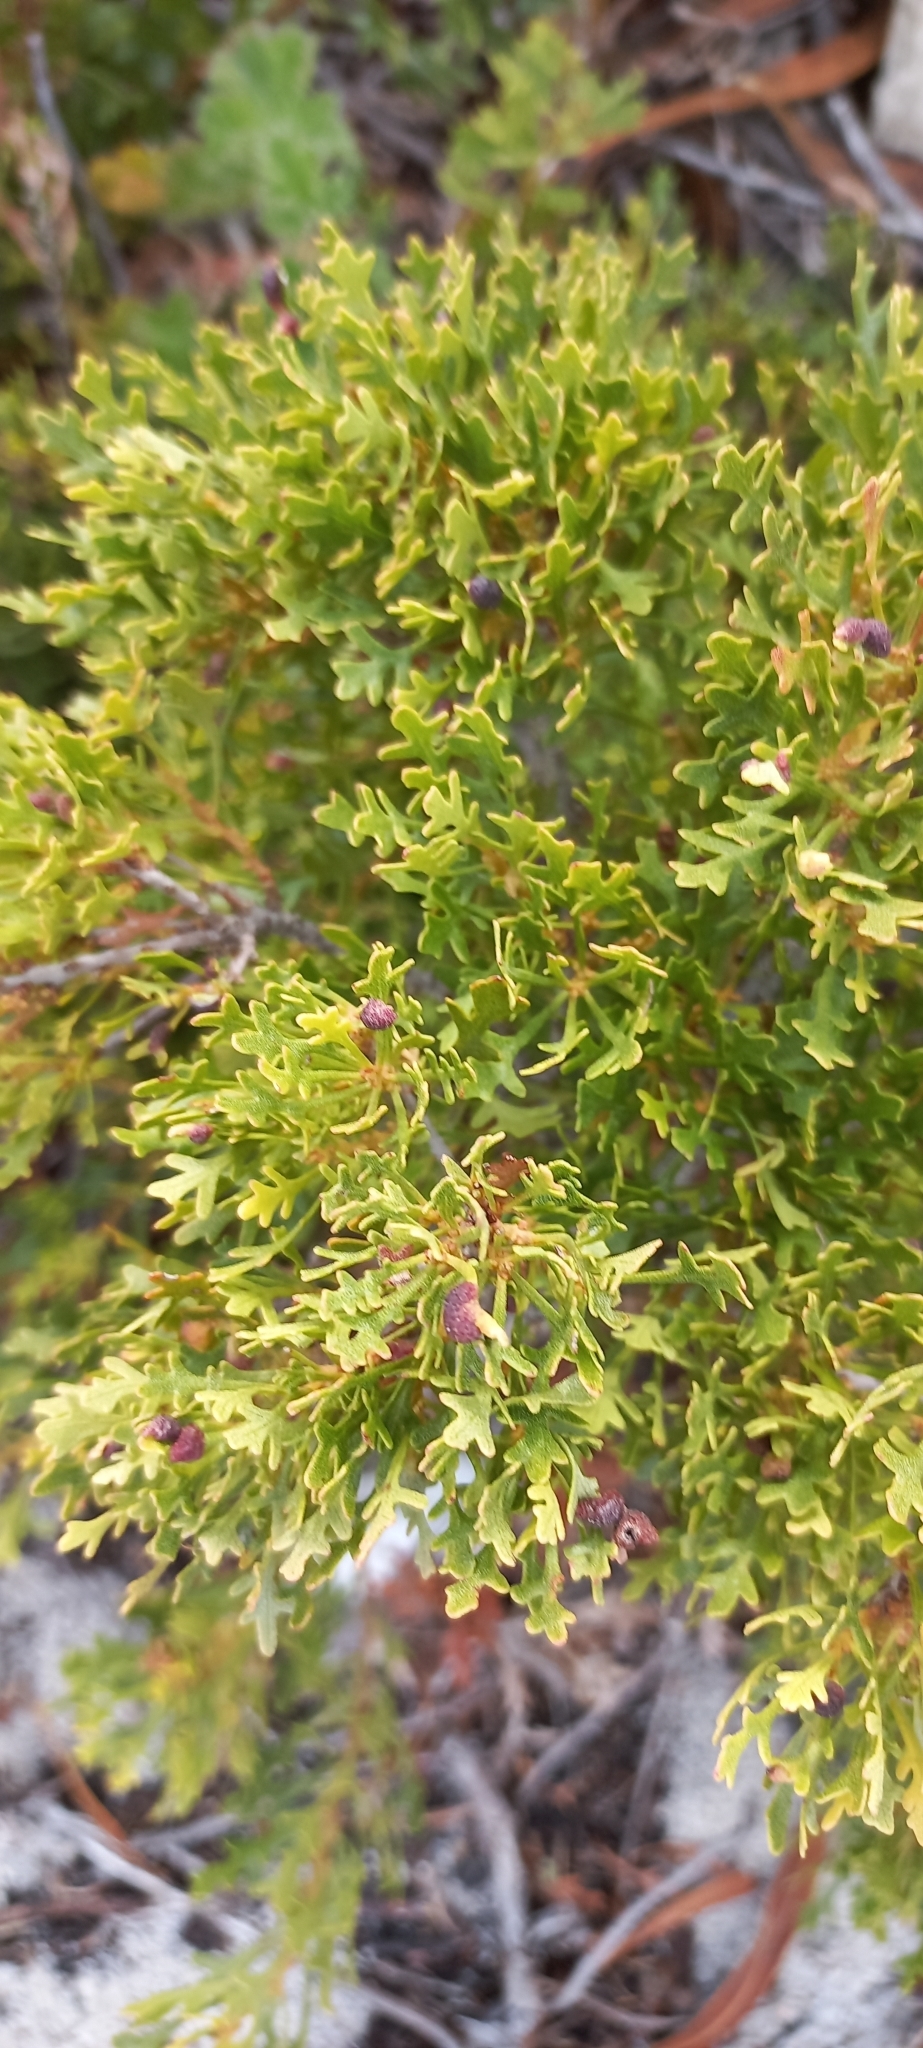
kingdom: Plantae
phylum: Tracheophyta
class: Magnoliopsida
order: Fagales
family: Myricaceae
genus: Morella
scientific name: Morella quercifolia
